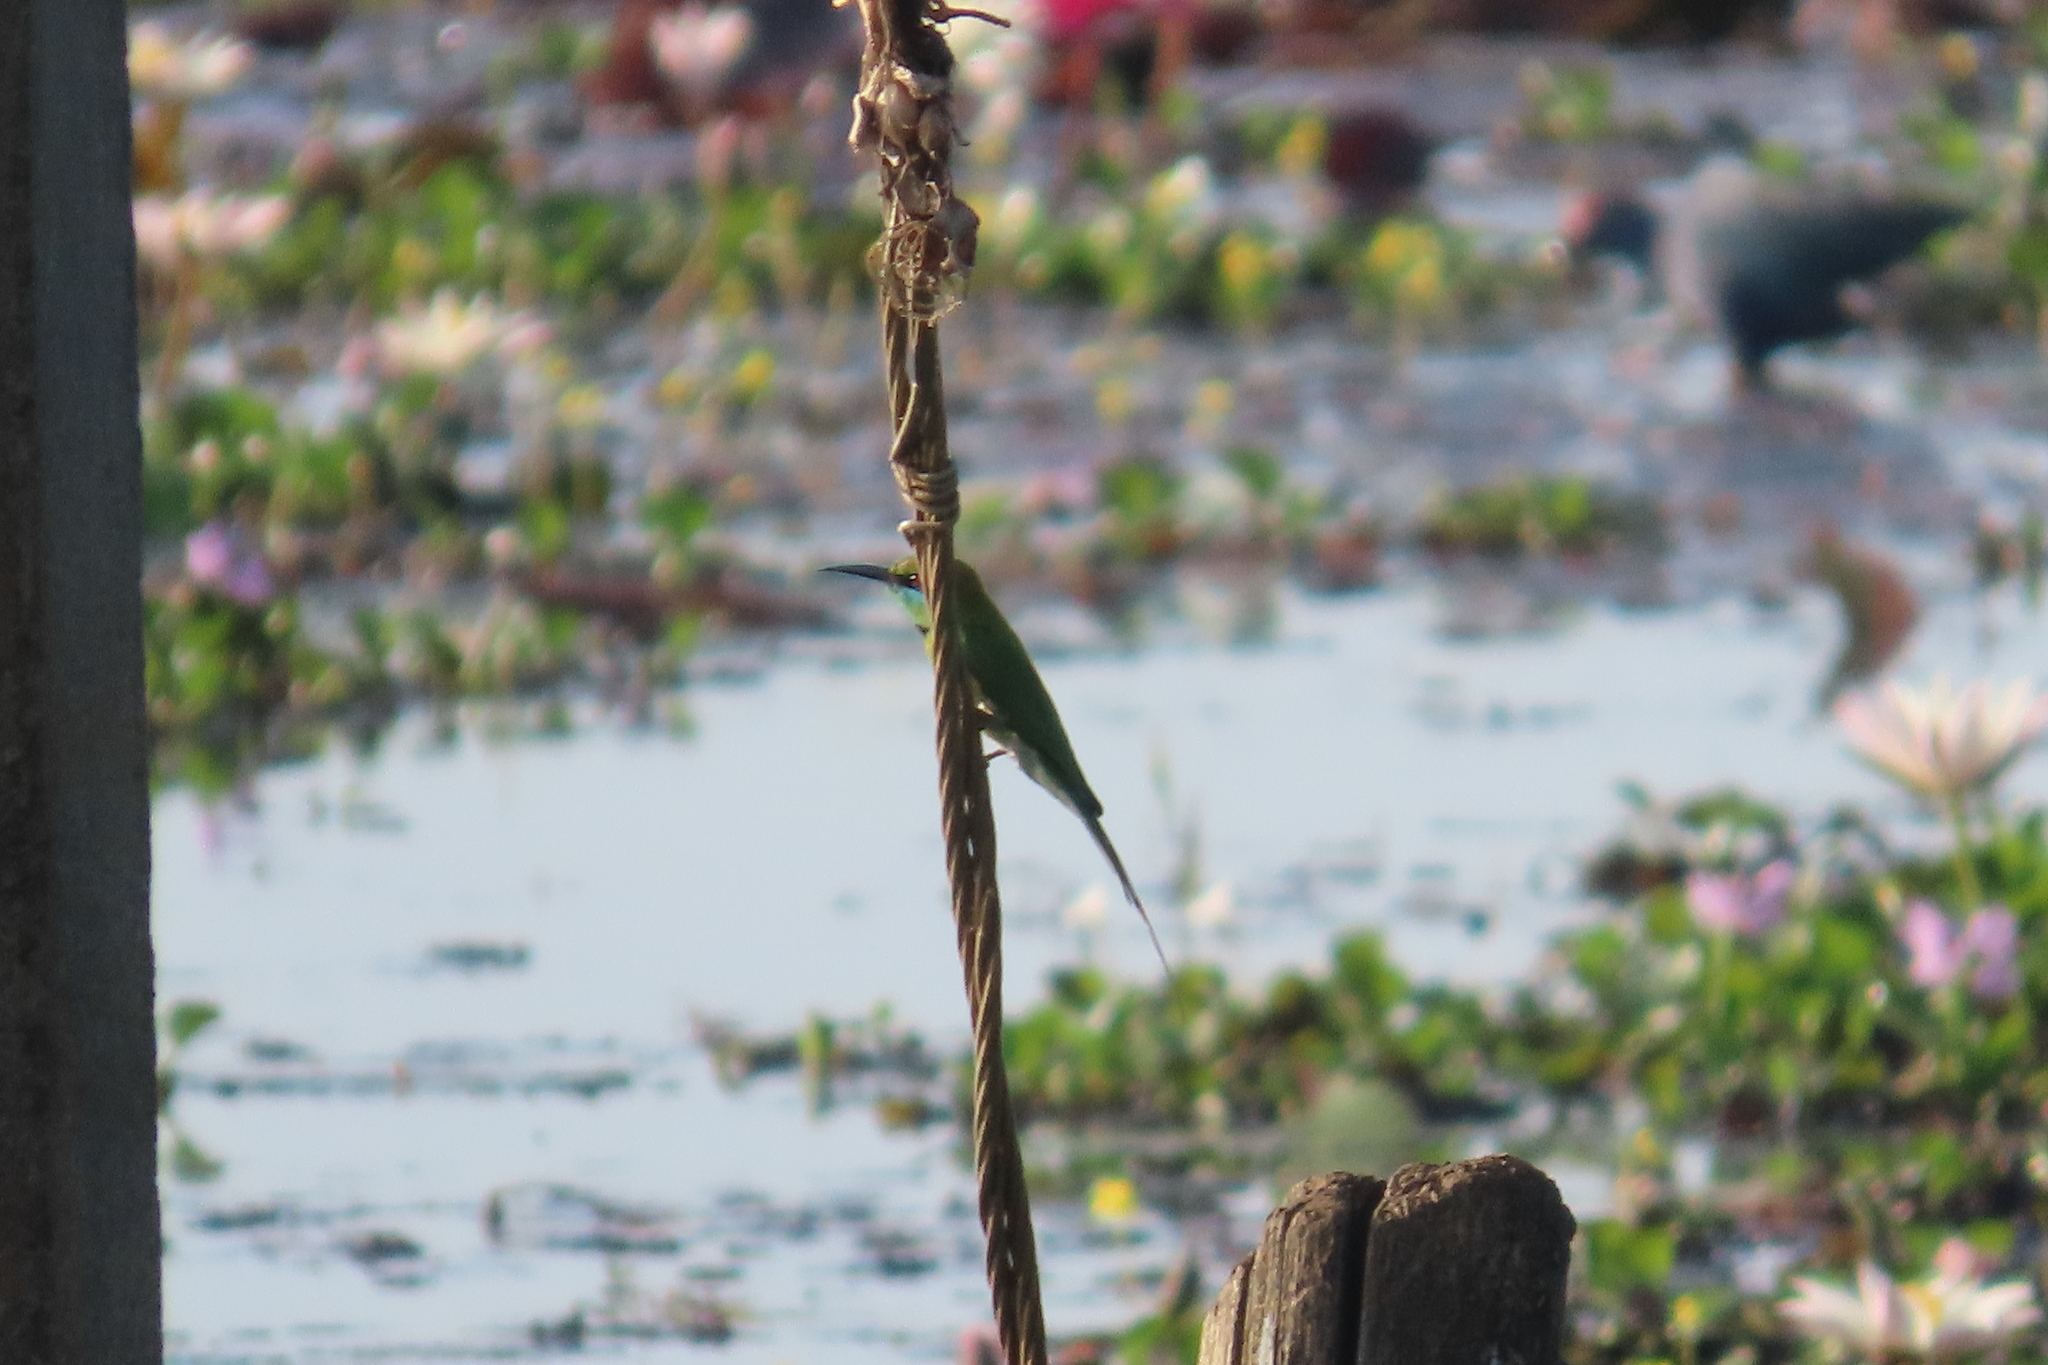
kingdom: Animalia
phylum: Chordata
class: Aves
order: Coraciiformes
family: Meropidae
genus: Merops
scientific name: Merops orientalis
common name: Green bee-eater
